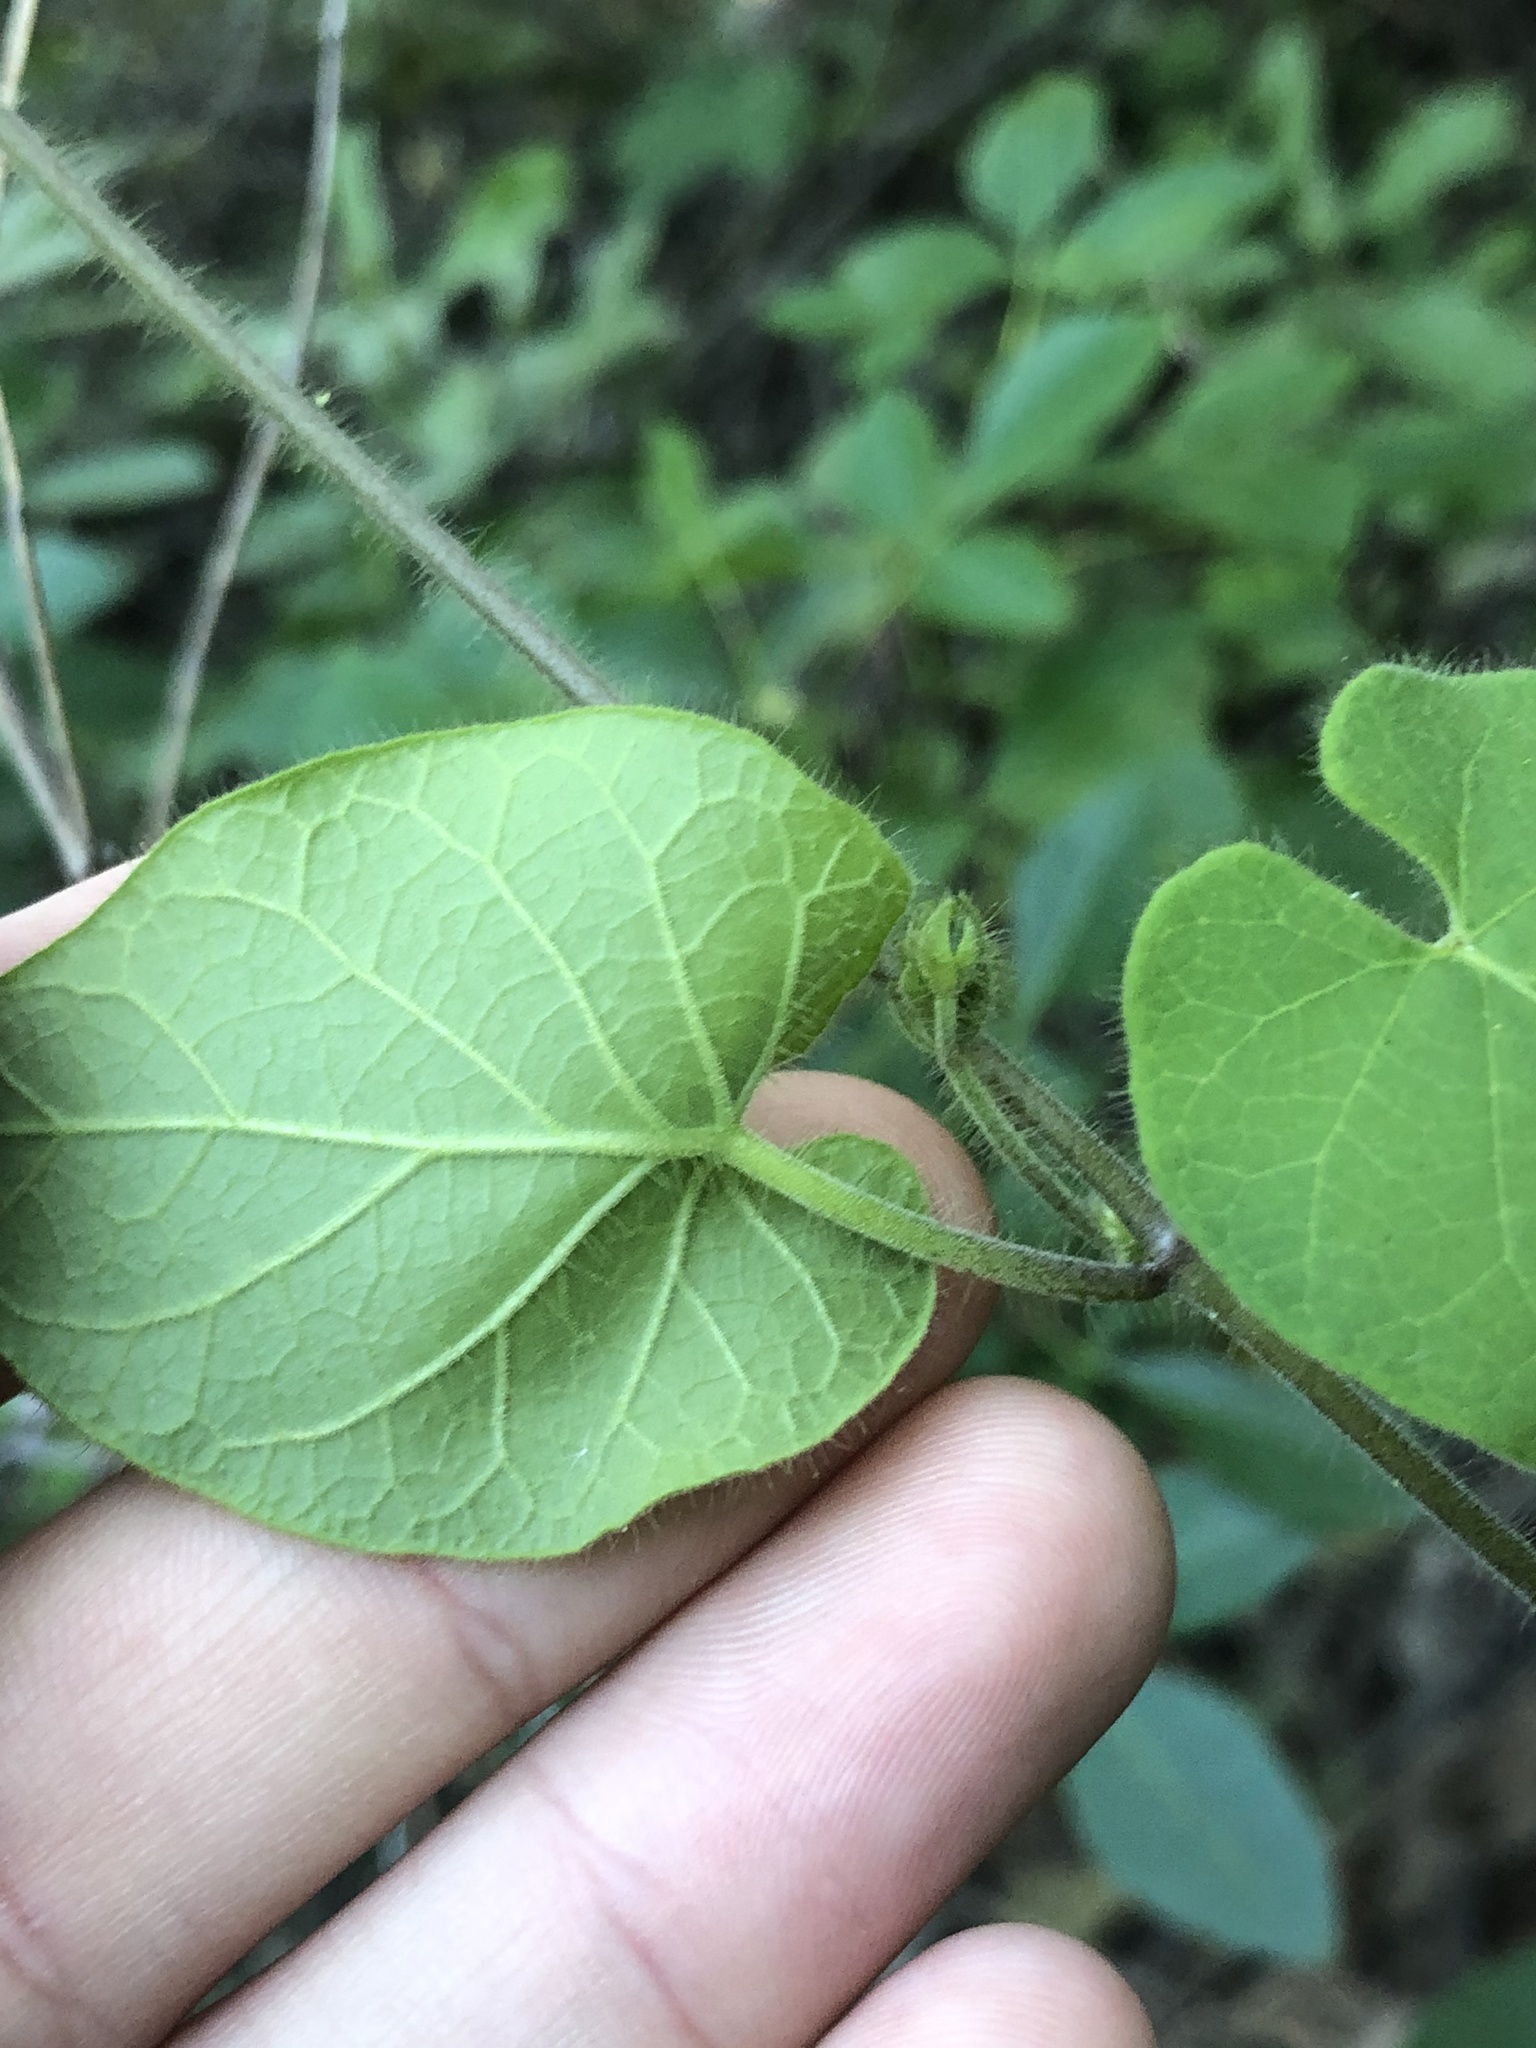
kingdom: Plantae
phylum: Tracheophyta
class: Magnoliopsida
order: Gentianales
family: Apocynaceae
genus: Dictyanthus
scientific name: Dictyanthus reticulatus
